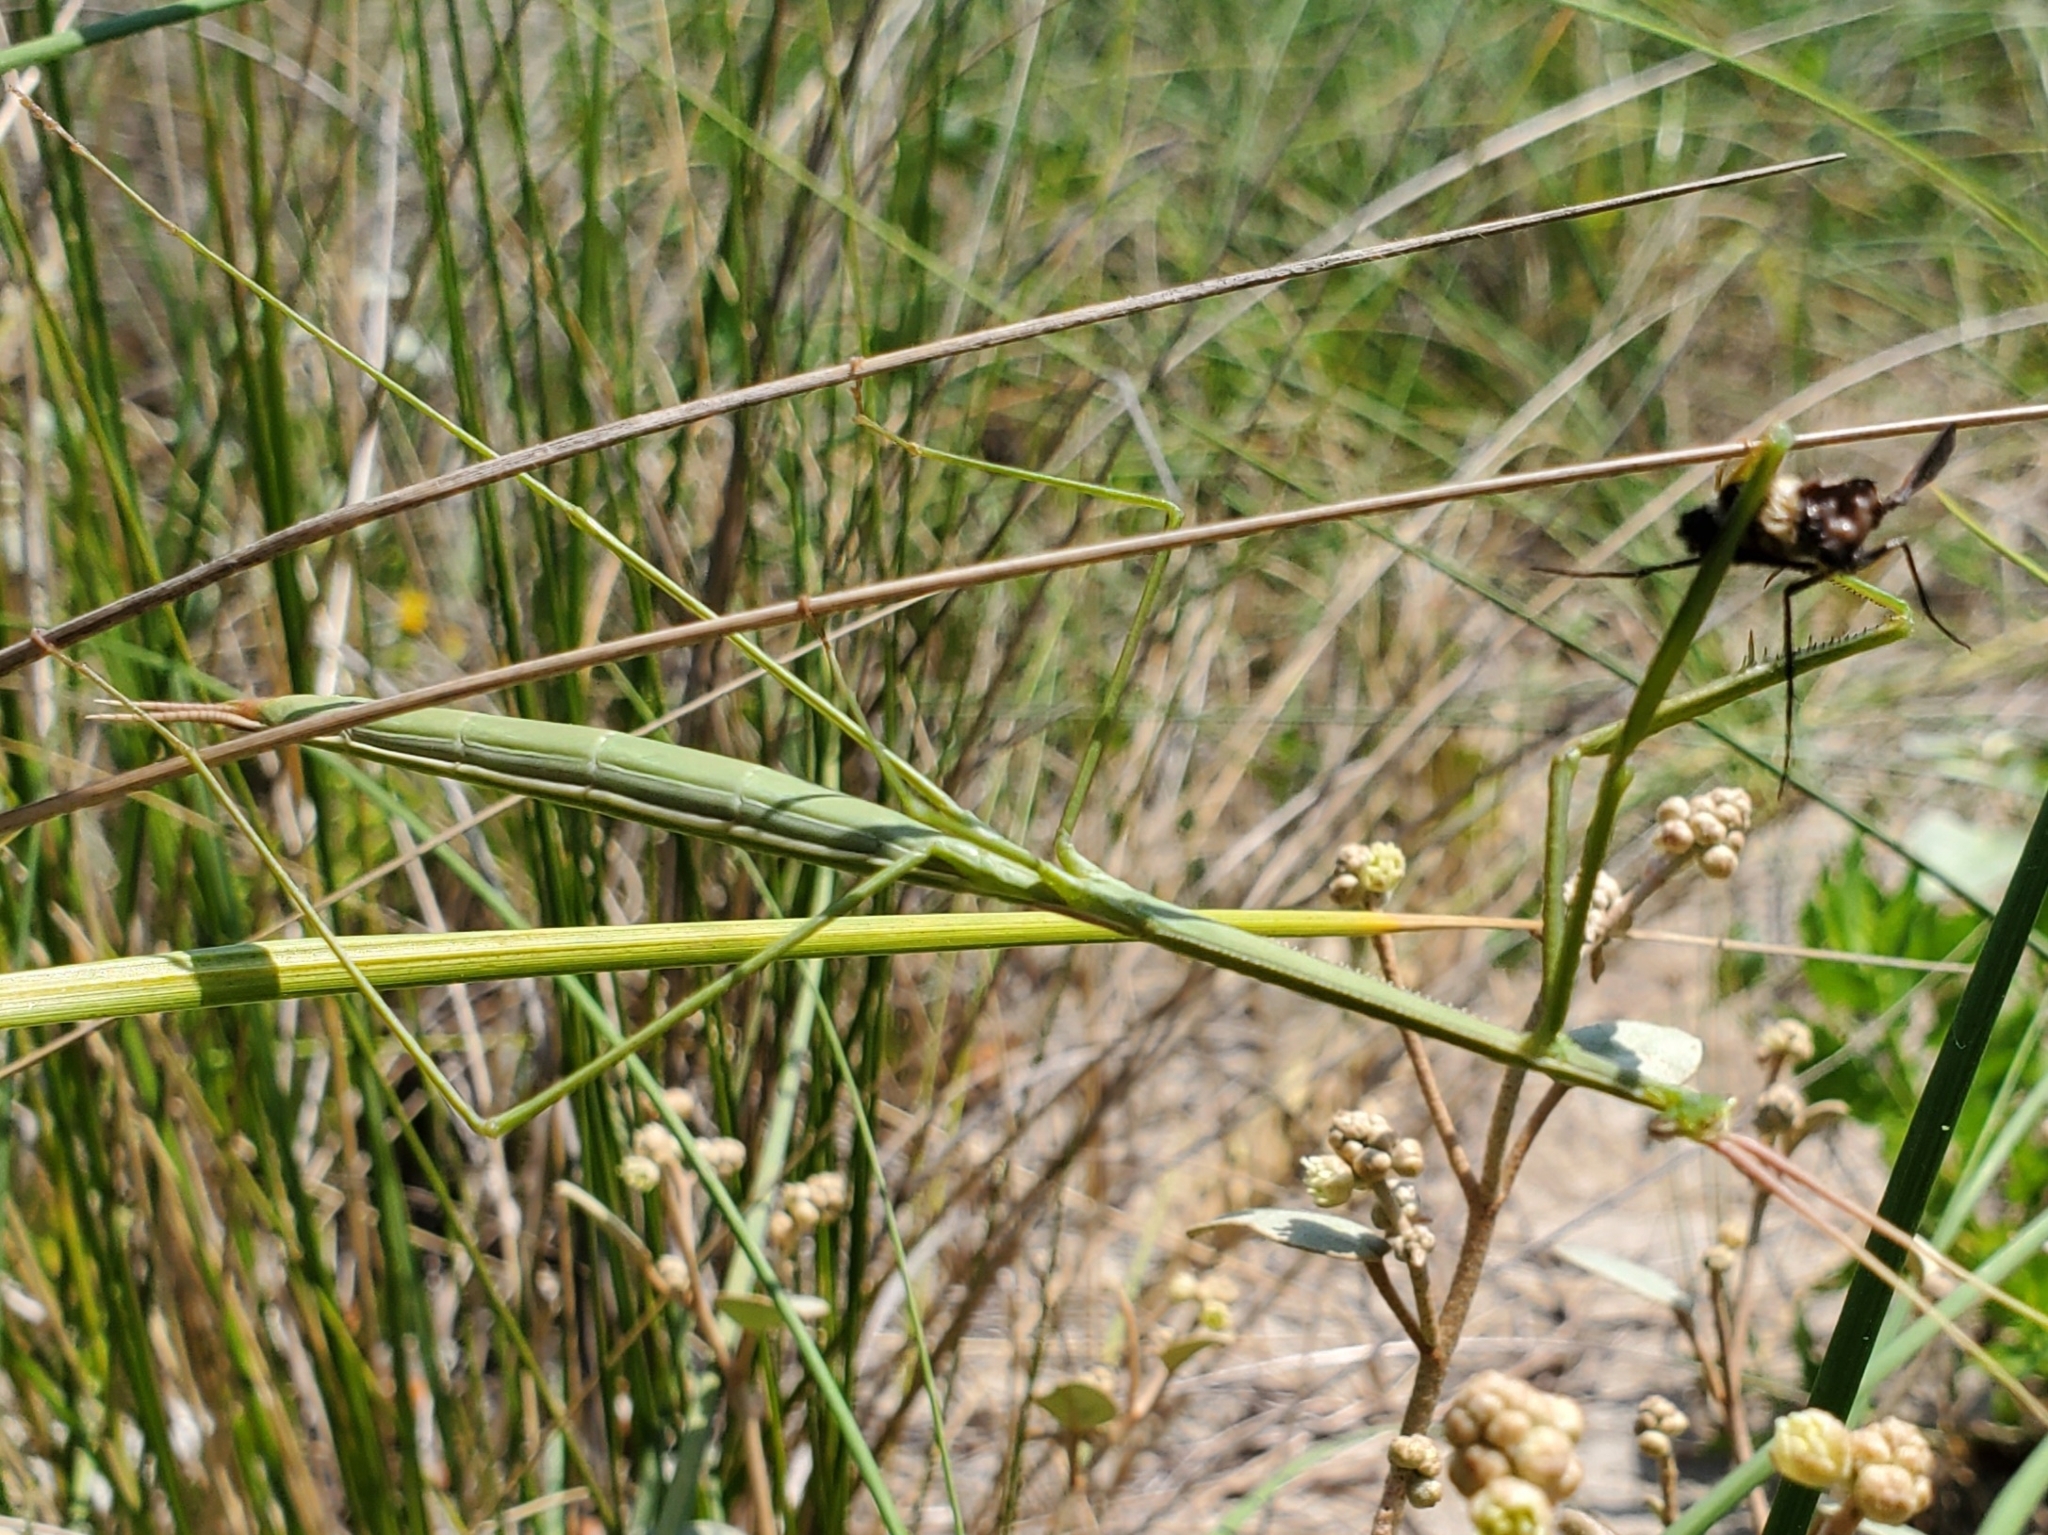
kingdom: Animalia
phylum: Arthropoda
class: Insecta
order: Mantodea
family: Coptopterygidae
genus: Brunneria
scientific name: Brunneria borealis
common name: Mantis
